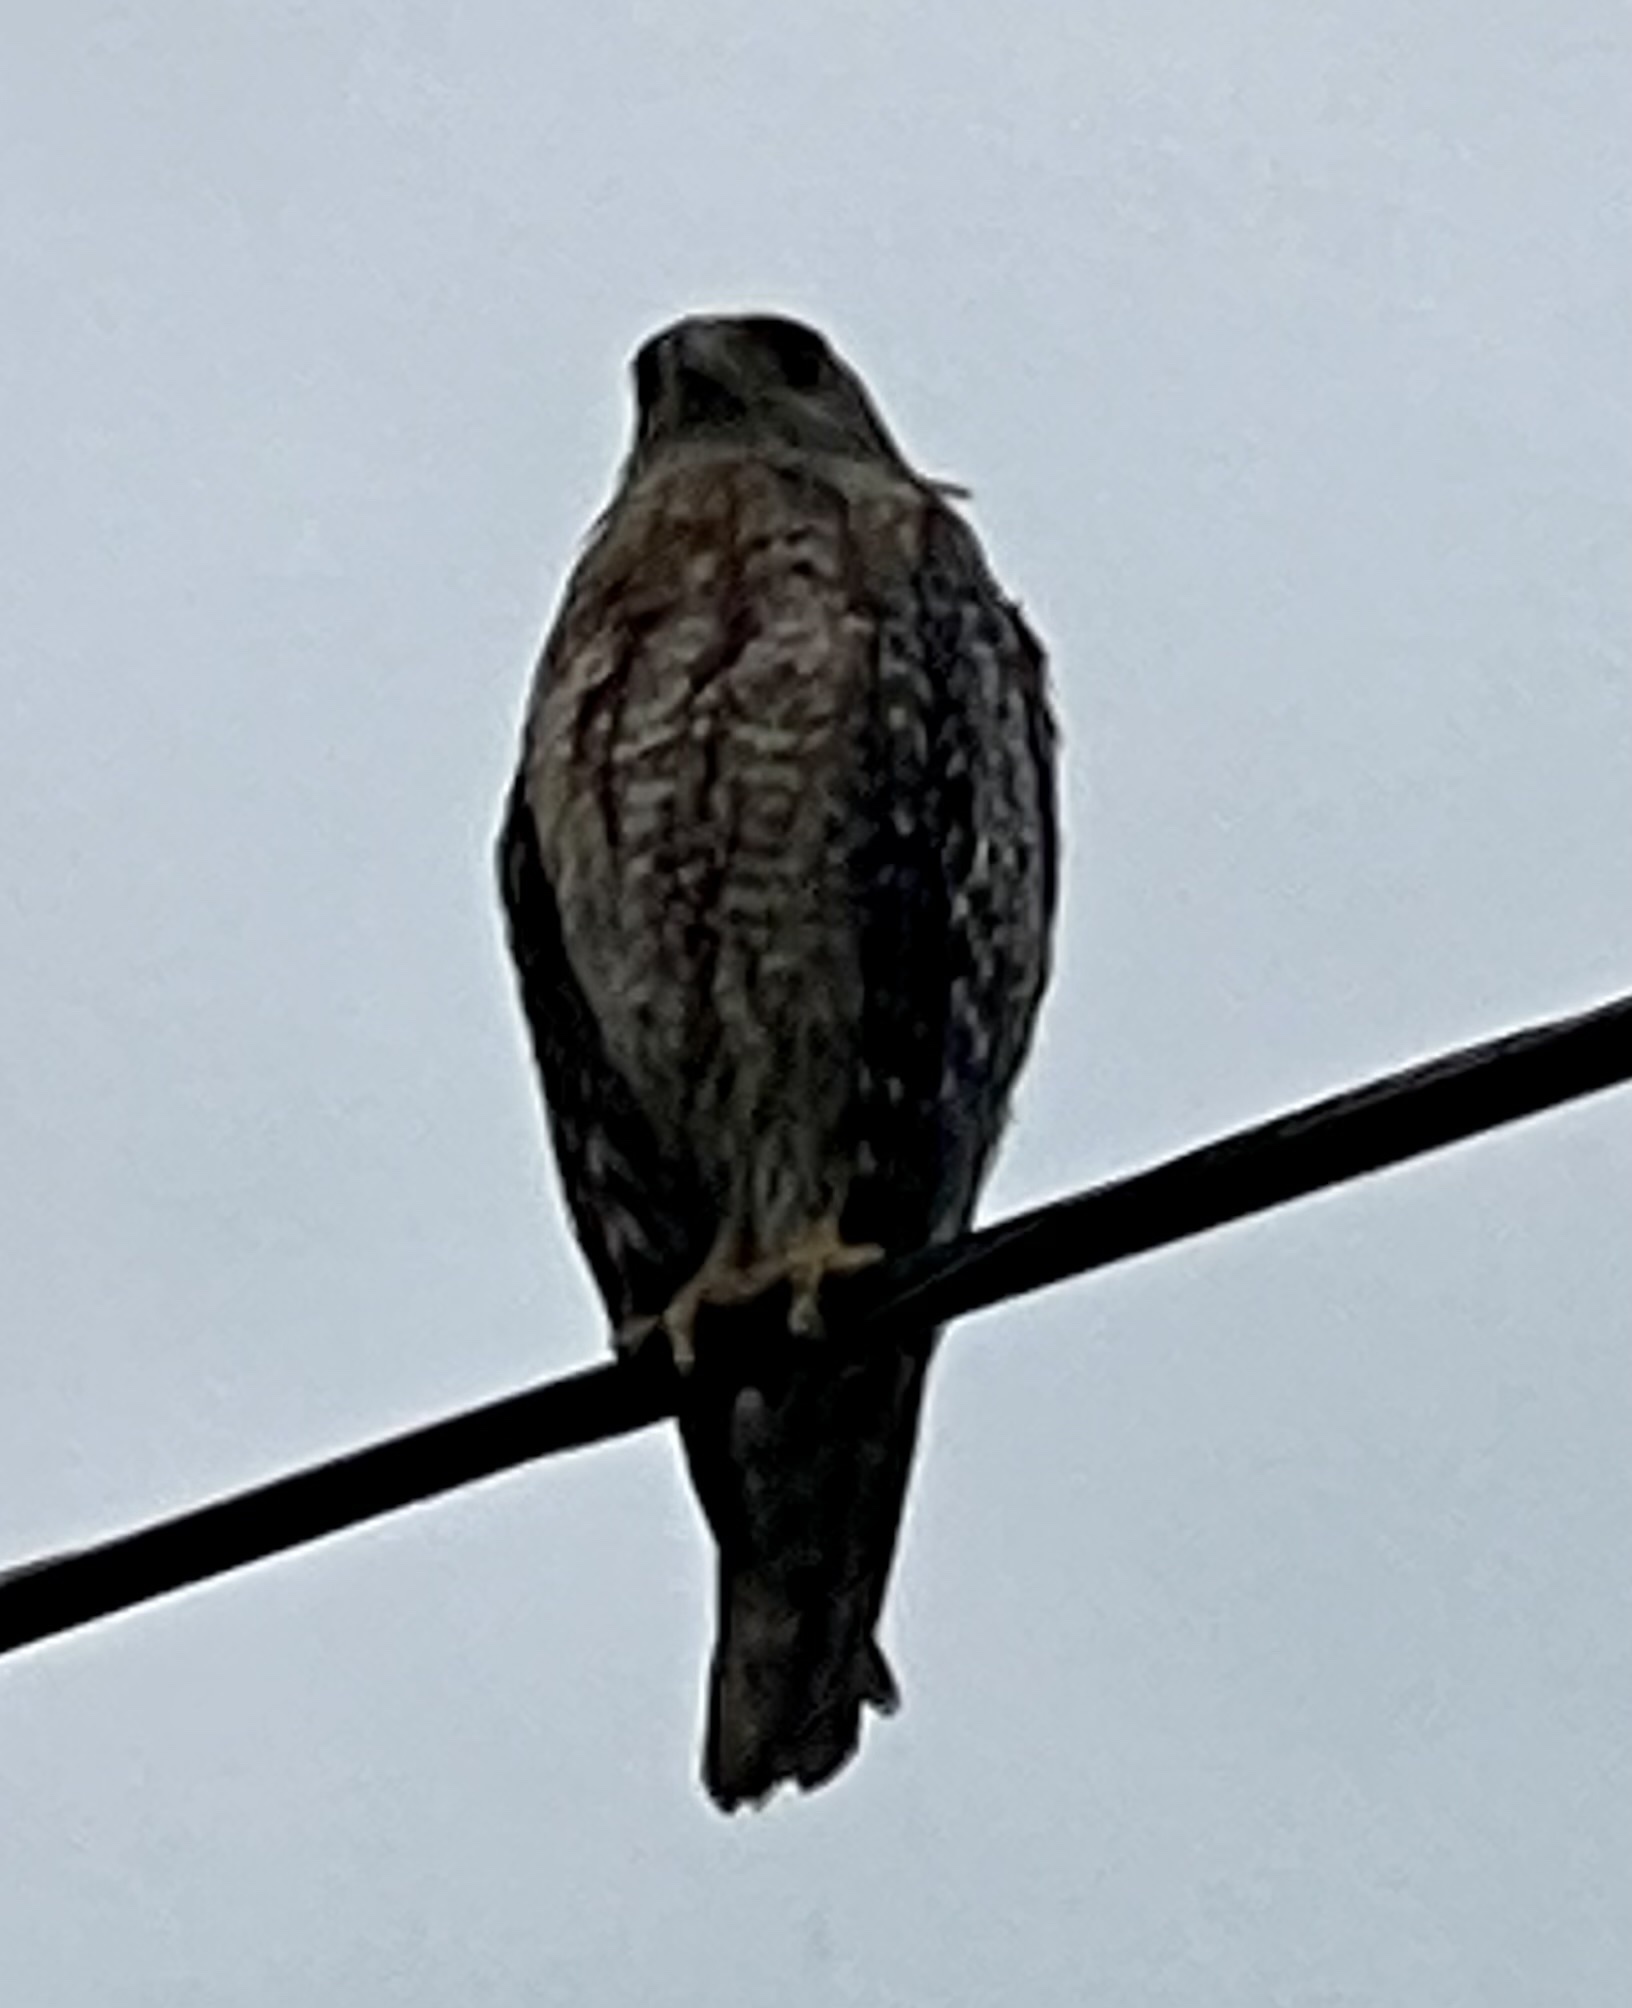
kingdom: Animalia
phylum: Chordata
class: Aves
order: Accipitriformes
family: Accipitridae
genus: Buteo
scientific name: Buteo lineatus
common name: Red-shouldered hawk
